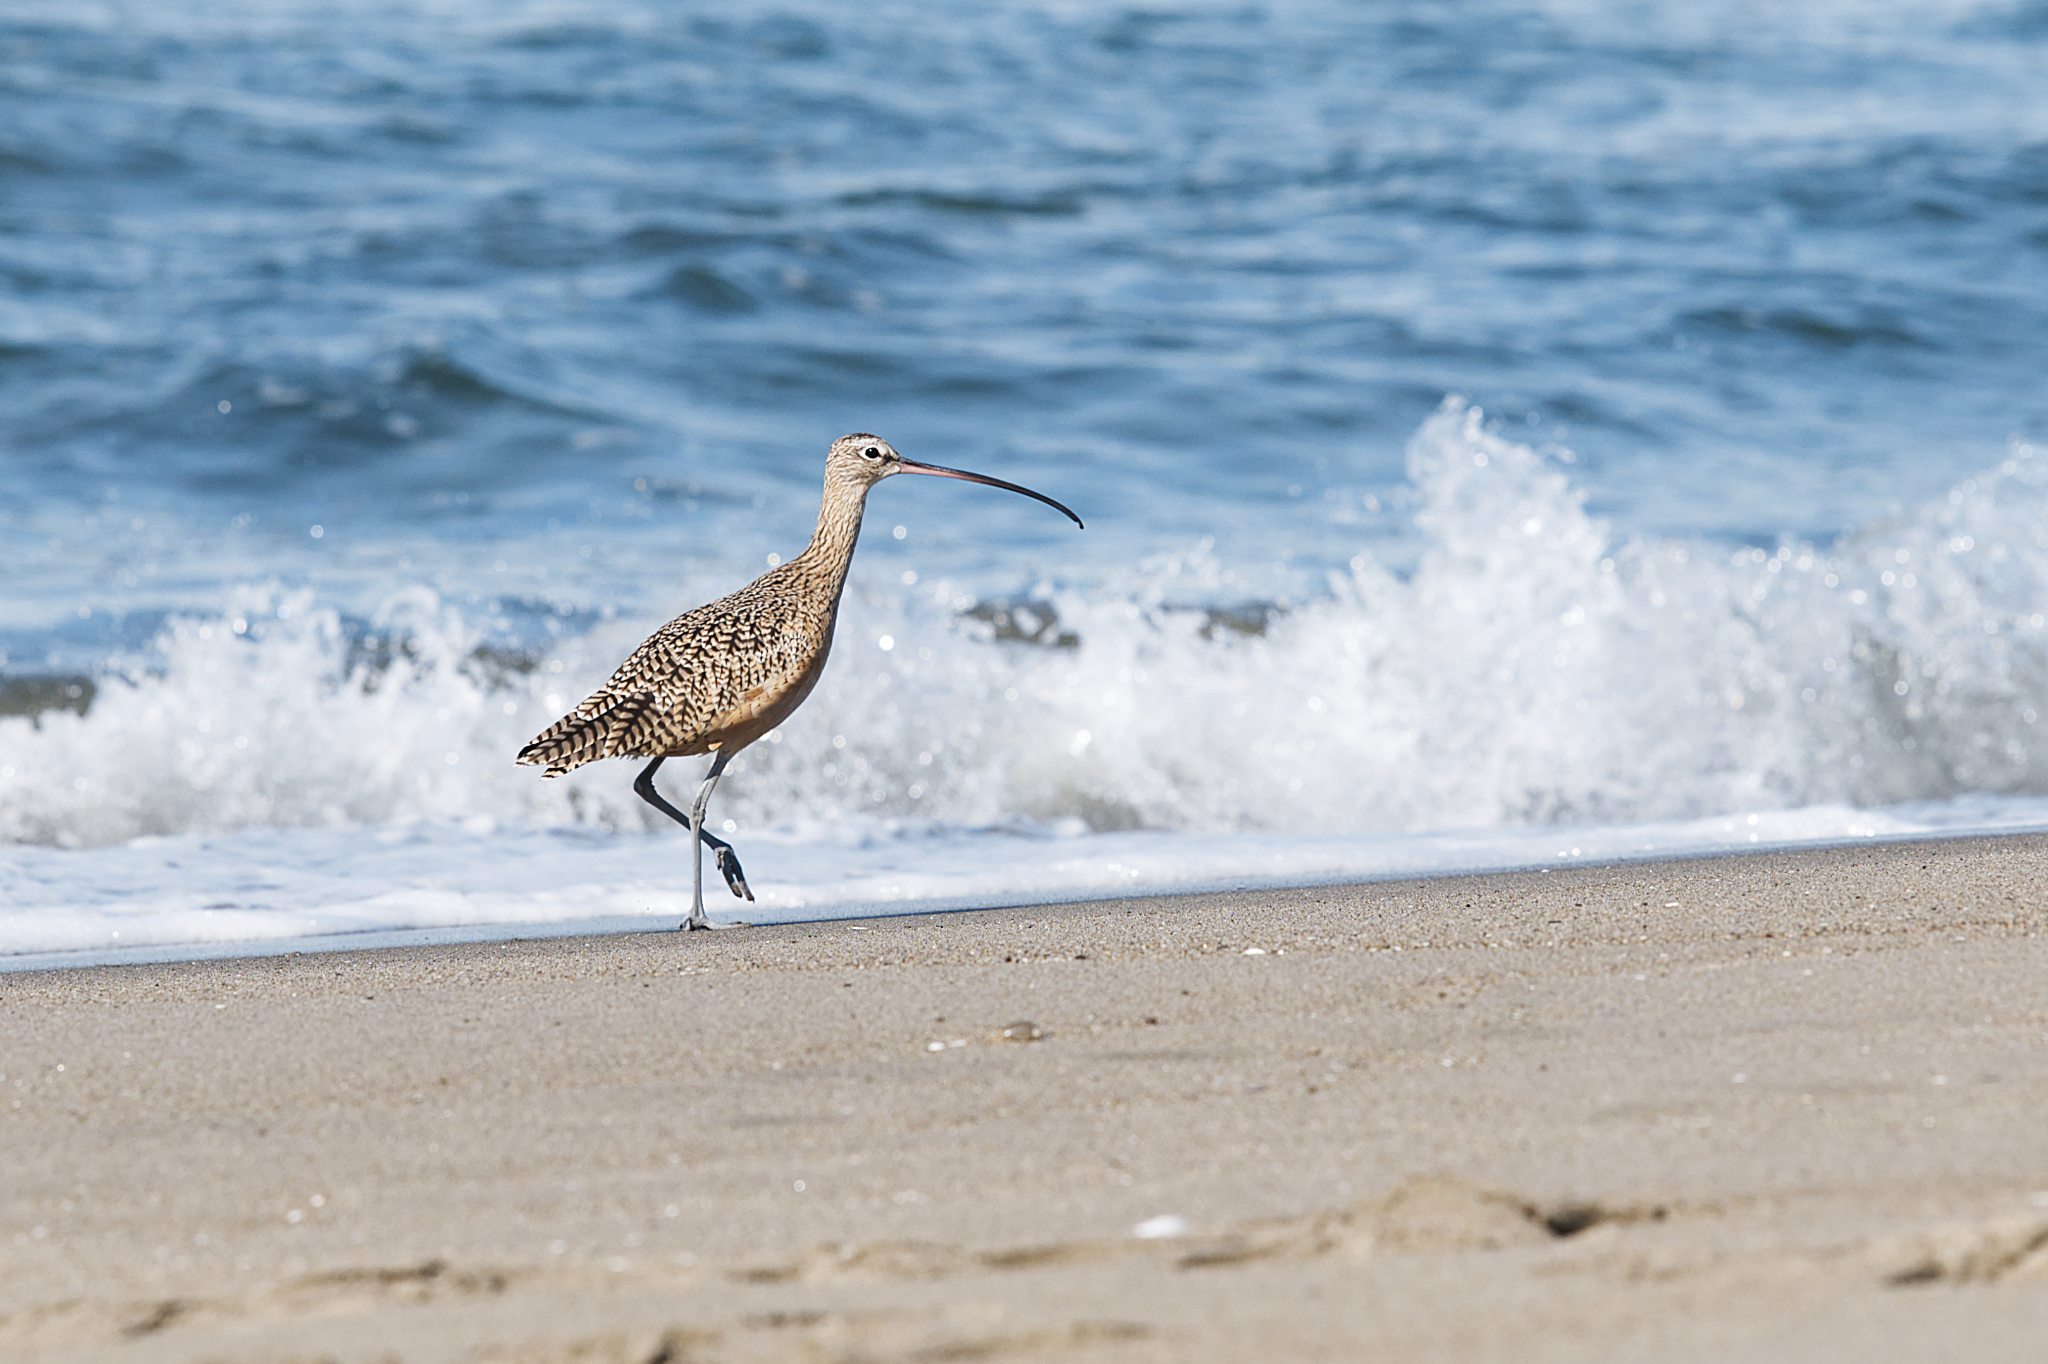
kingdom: Animalia
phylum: Chordata
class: Aves
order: Charadriiformes
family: Scolopacidae
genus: Numenius
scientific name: Numenius americanus
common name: Long-billed curlew
